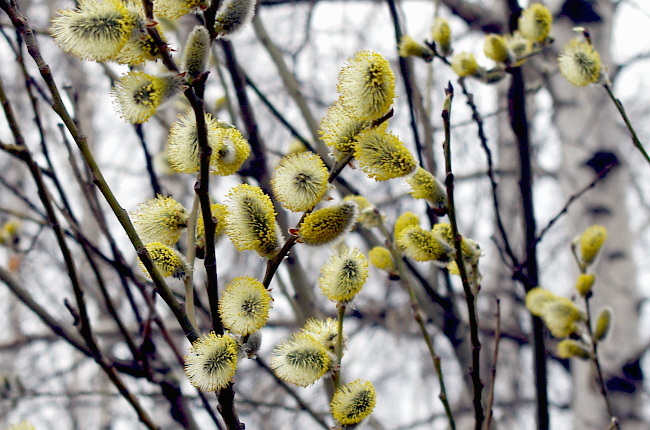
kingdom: Plantae
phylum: Tracheophyta
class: Magnoliopsida
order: Malpighiales
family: Salicaceae
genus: Salix
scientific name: Salix caprea
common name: Goat willow
